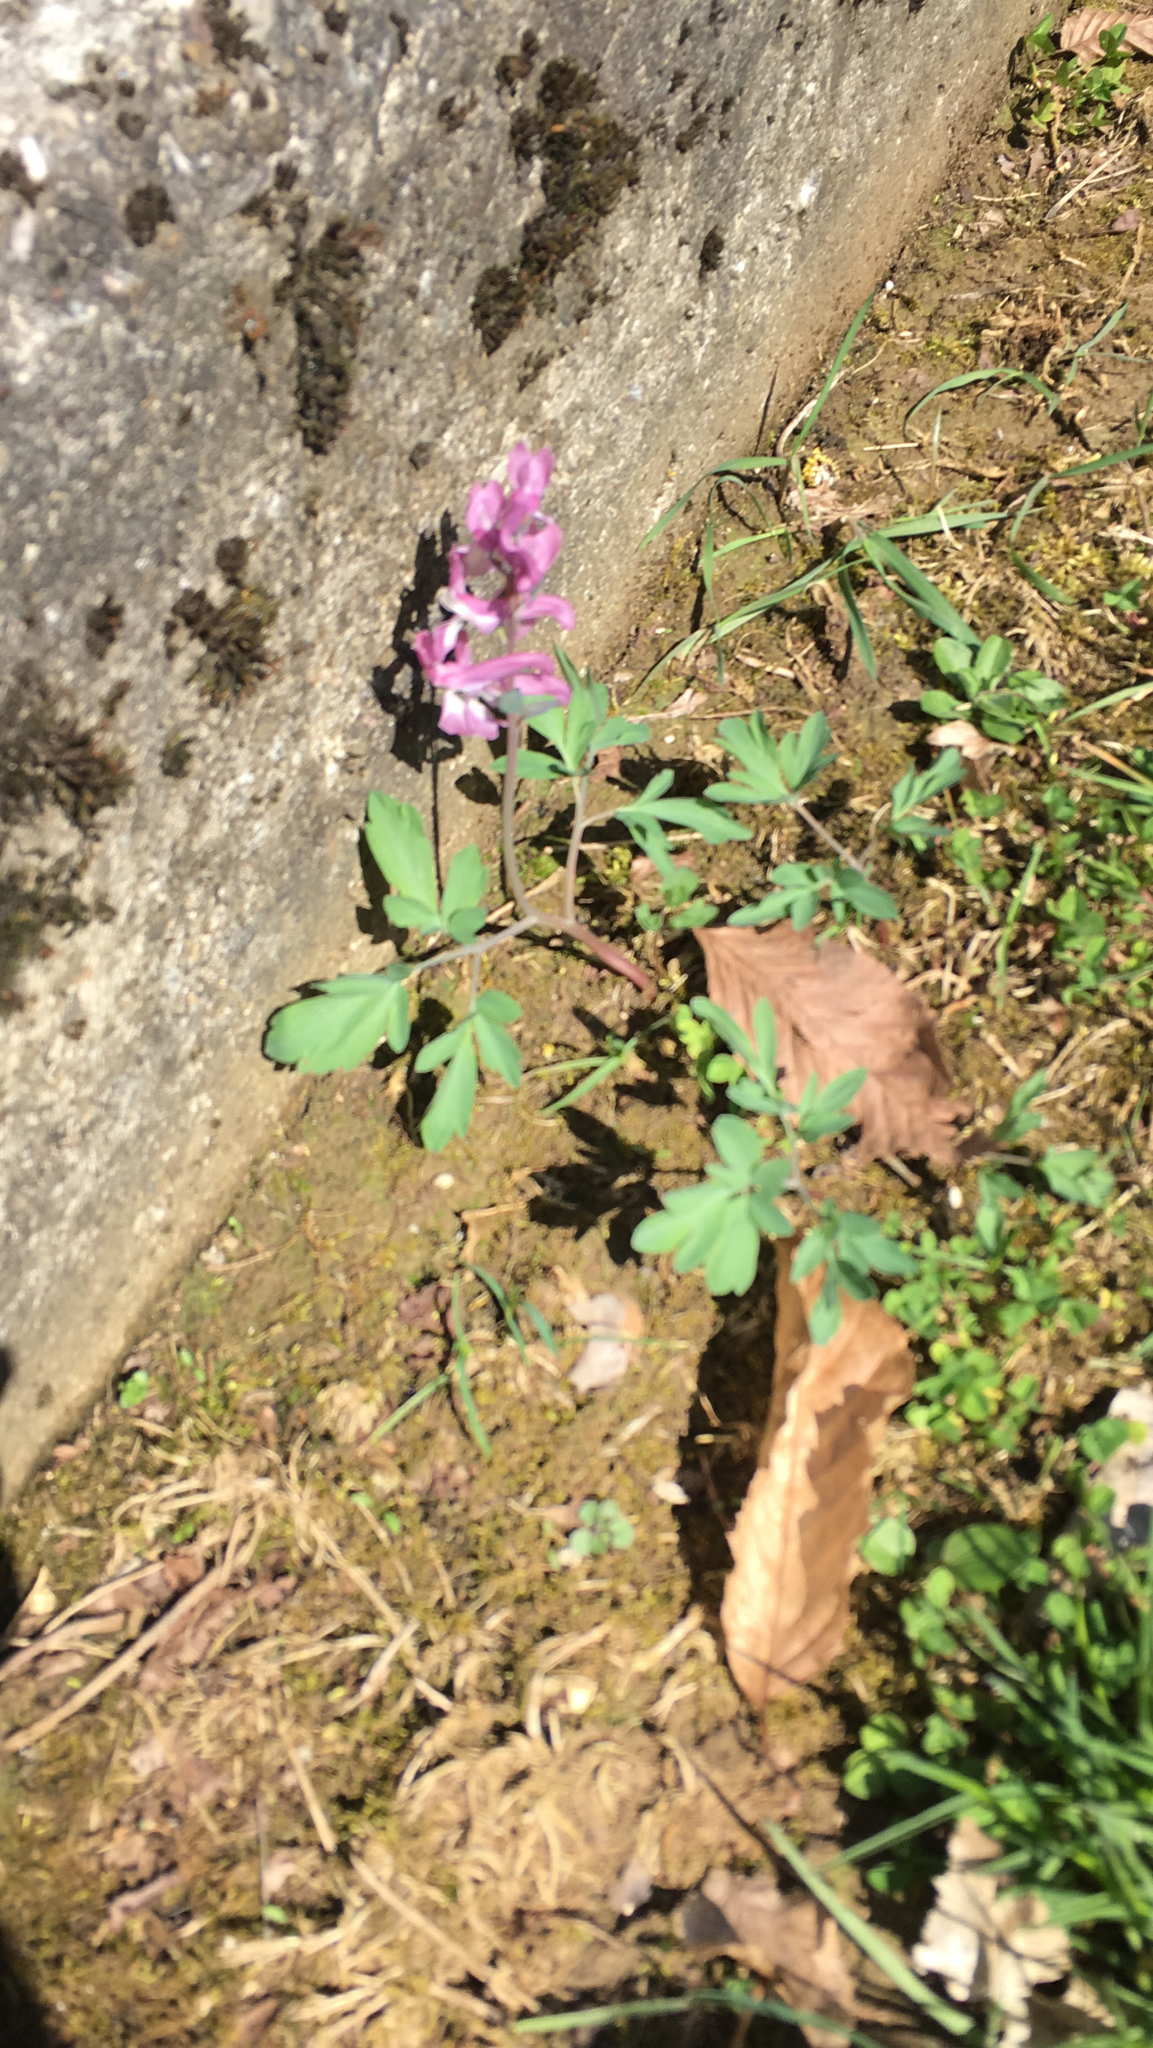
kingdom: Plantae
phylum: Tracheophyta
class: Magnoliopsida
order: Ranunculales
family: Papaveraceae
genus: Corydalis
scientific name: Corydalis cava
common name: Hollowroot
